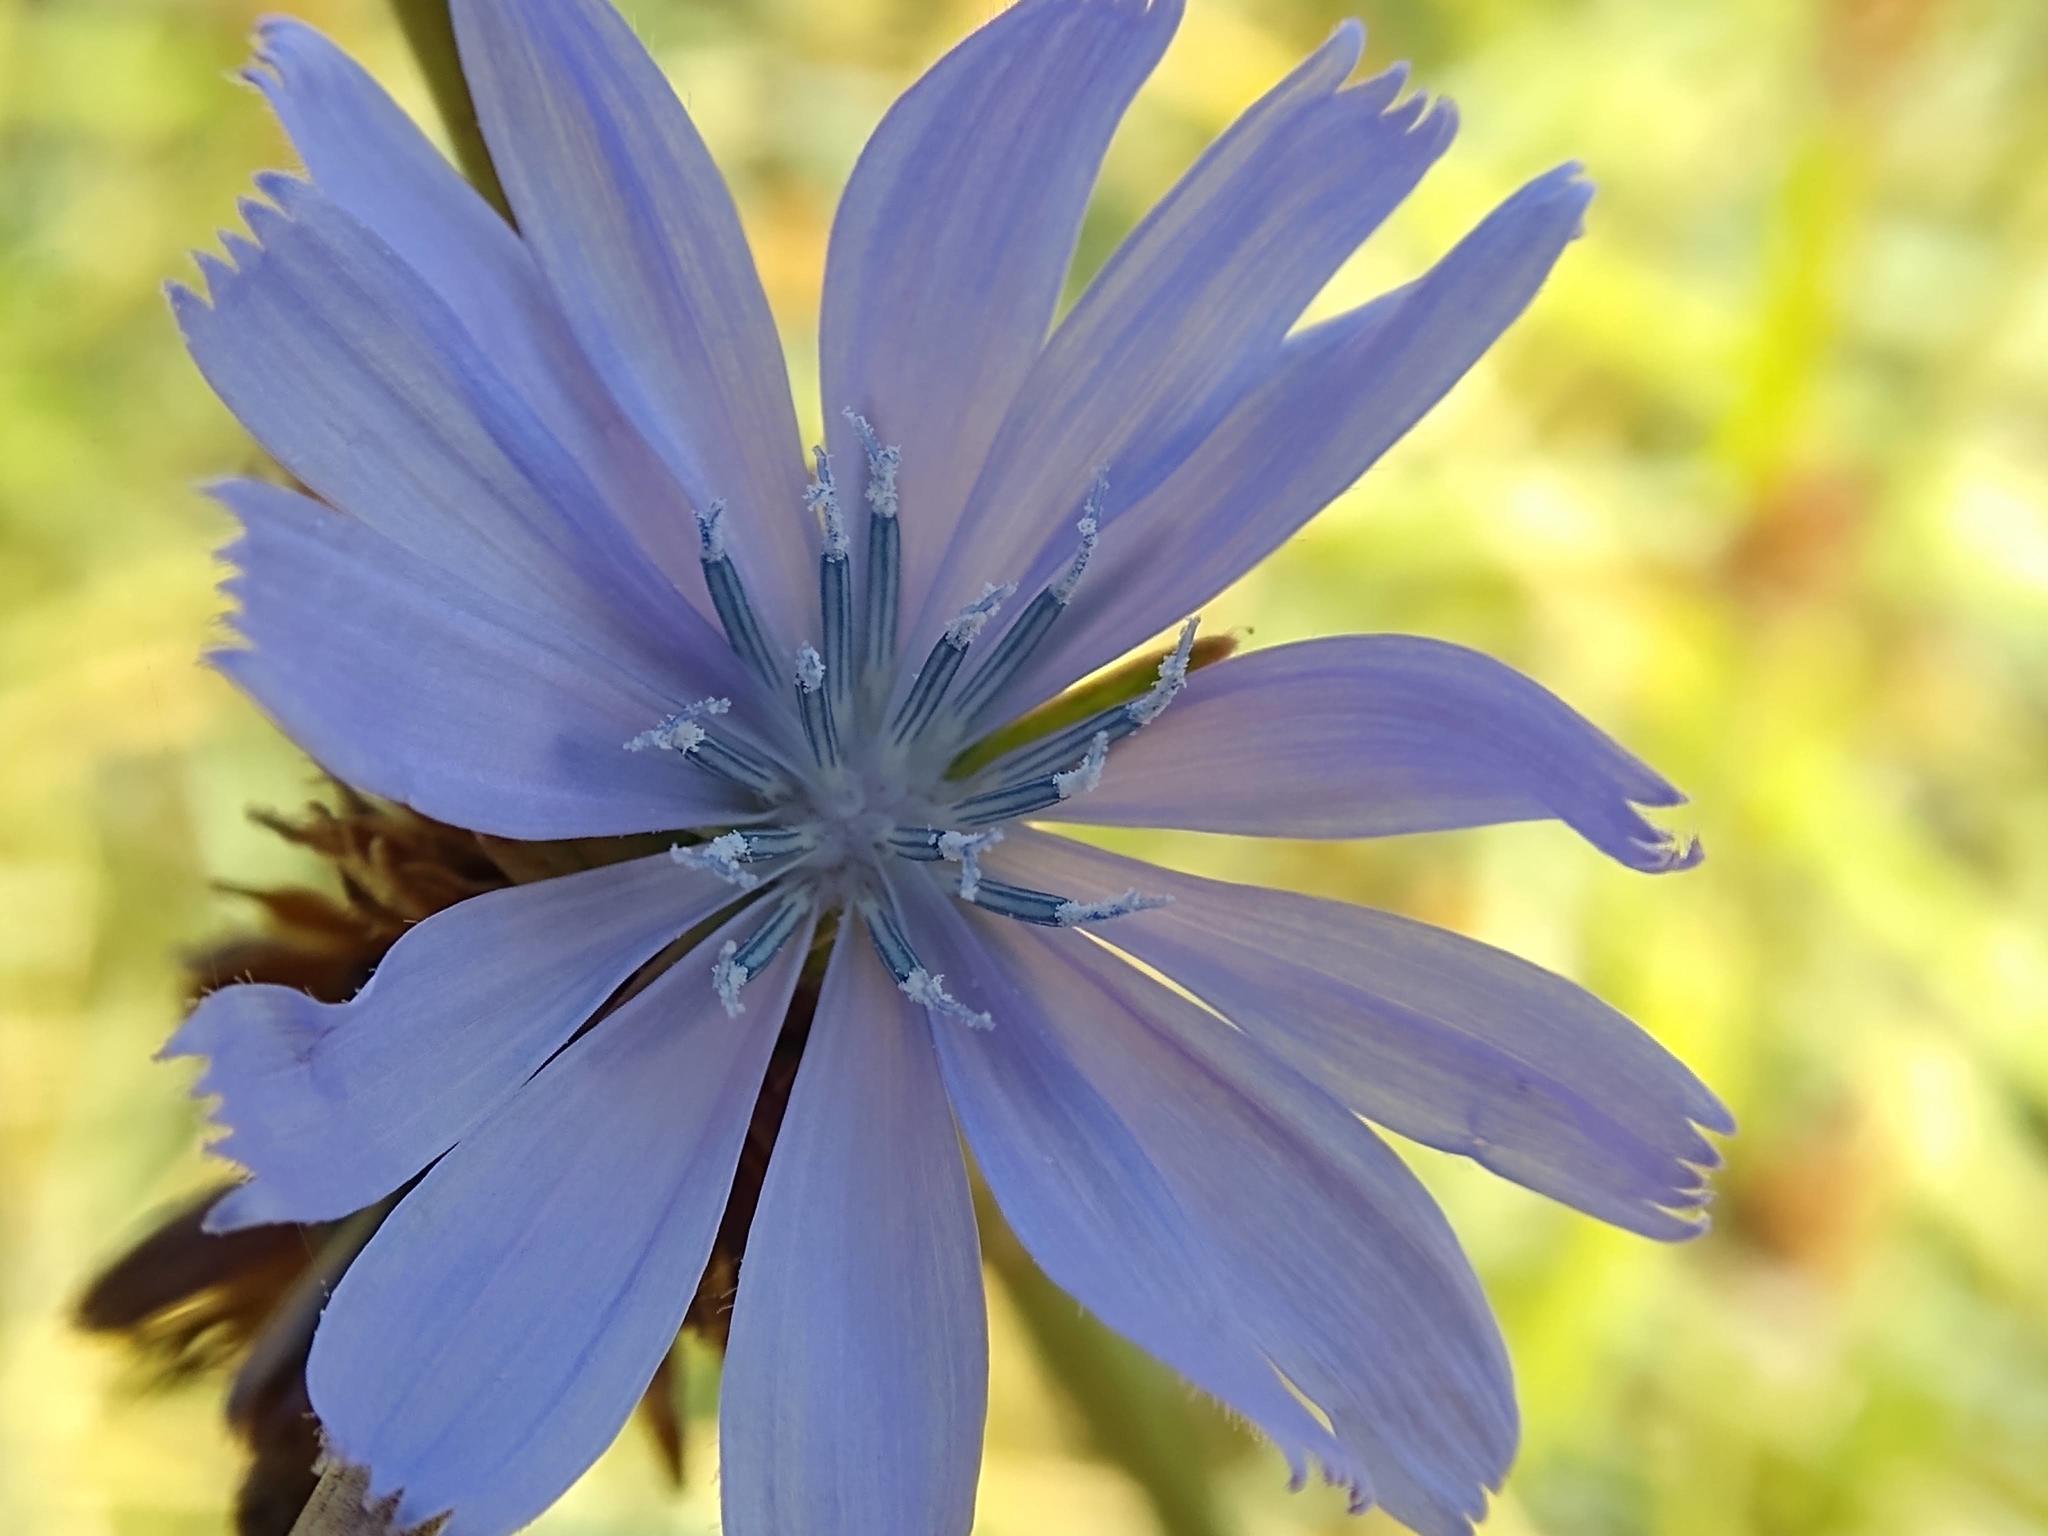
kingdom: Plantae
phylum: Tracheophyta
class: Magnoliopsida
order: Asterales
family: Asteraceae
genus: Cichorium
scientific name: Cichorium intybus
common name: Chicory
